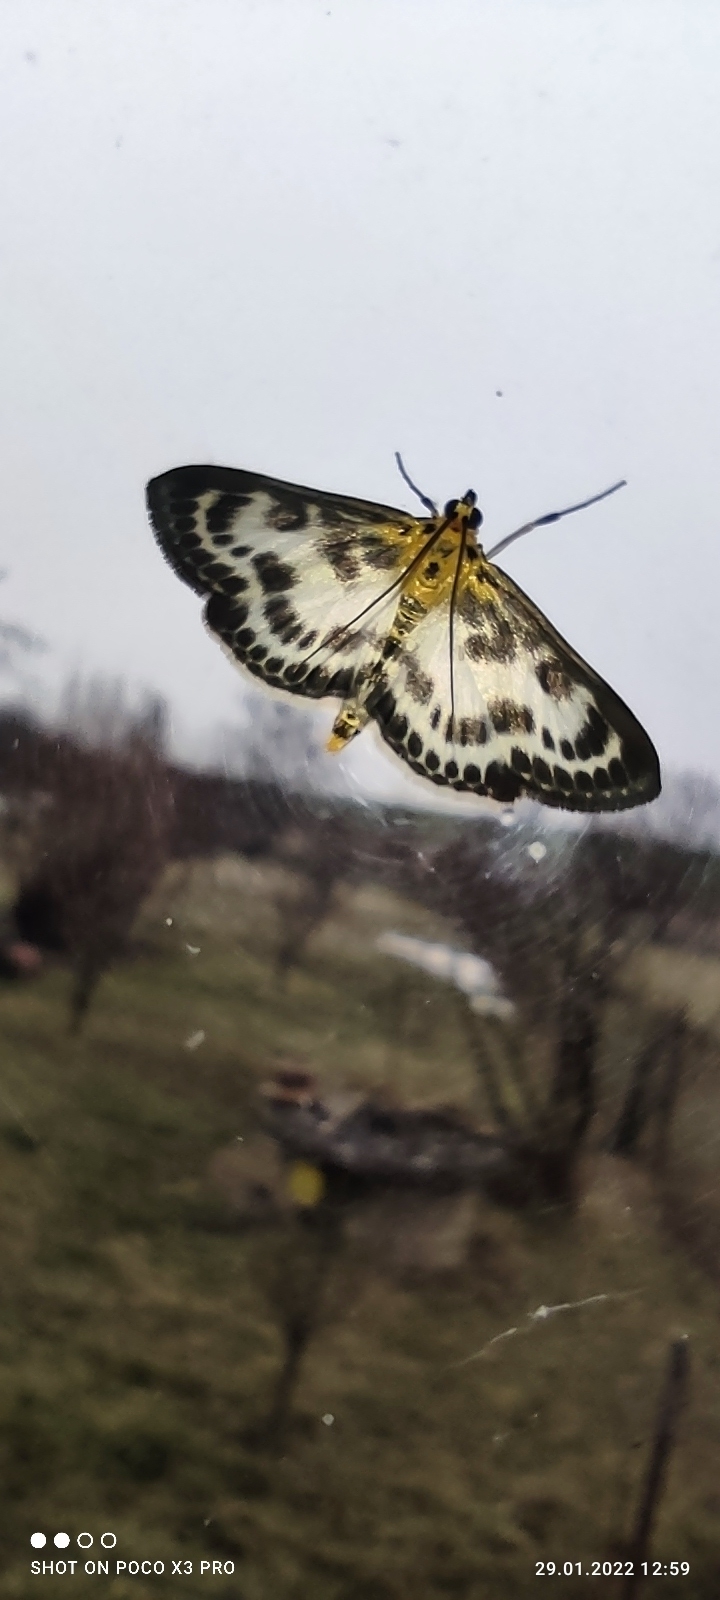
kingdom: Animalia
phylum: Arthropoda
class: Insecta
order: Lepidoptera
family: Crambidae
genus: Anania
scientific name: Anania hortulata
